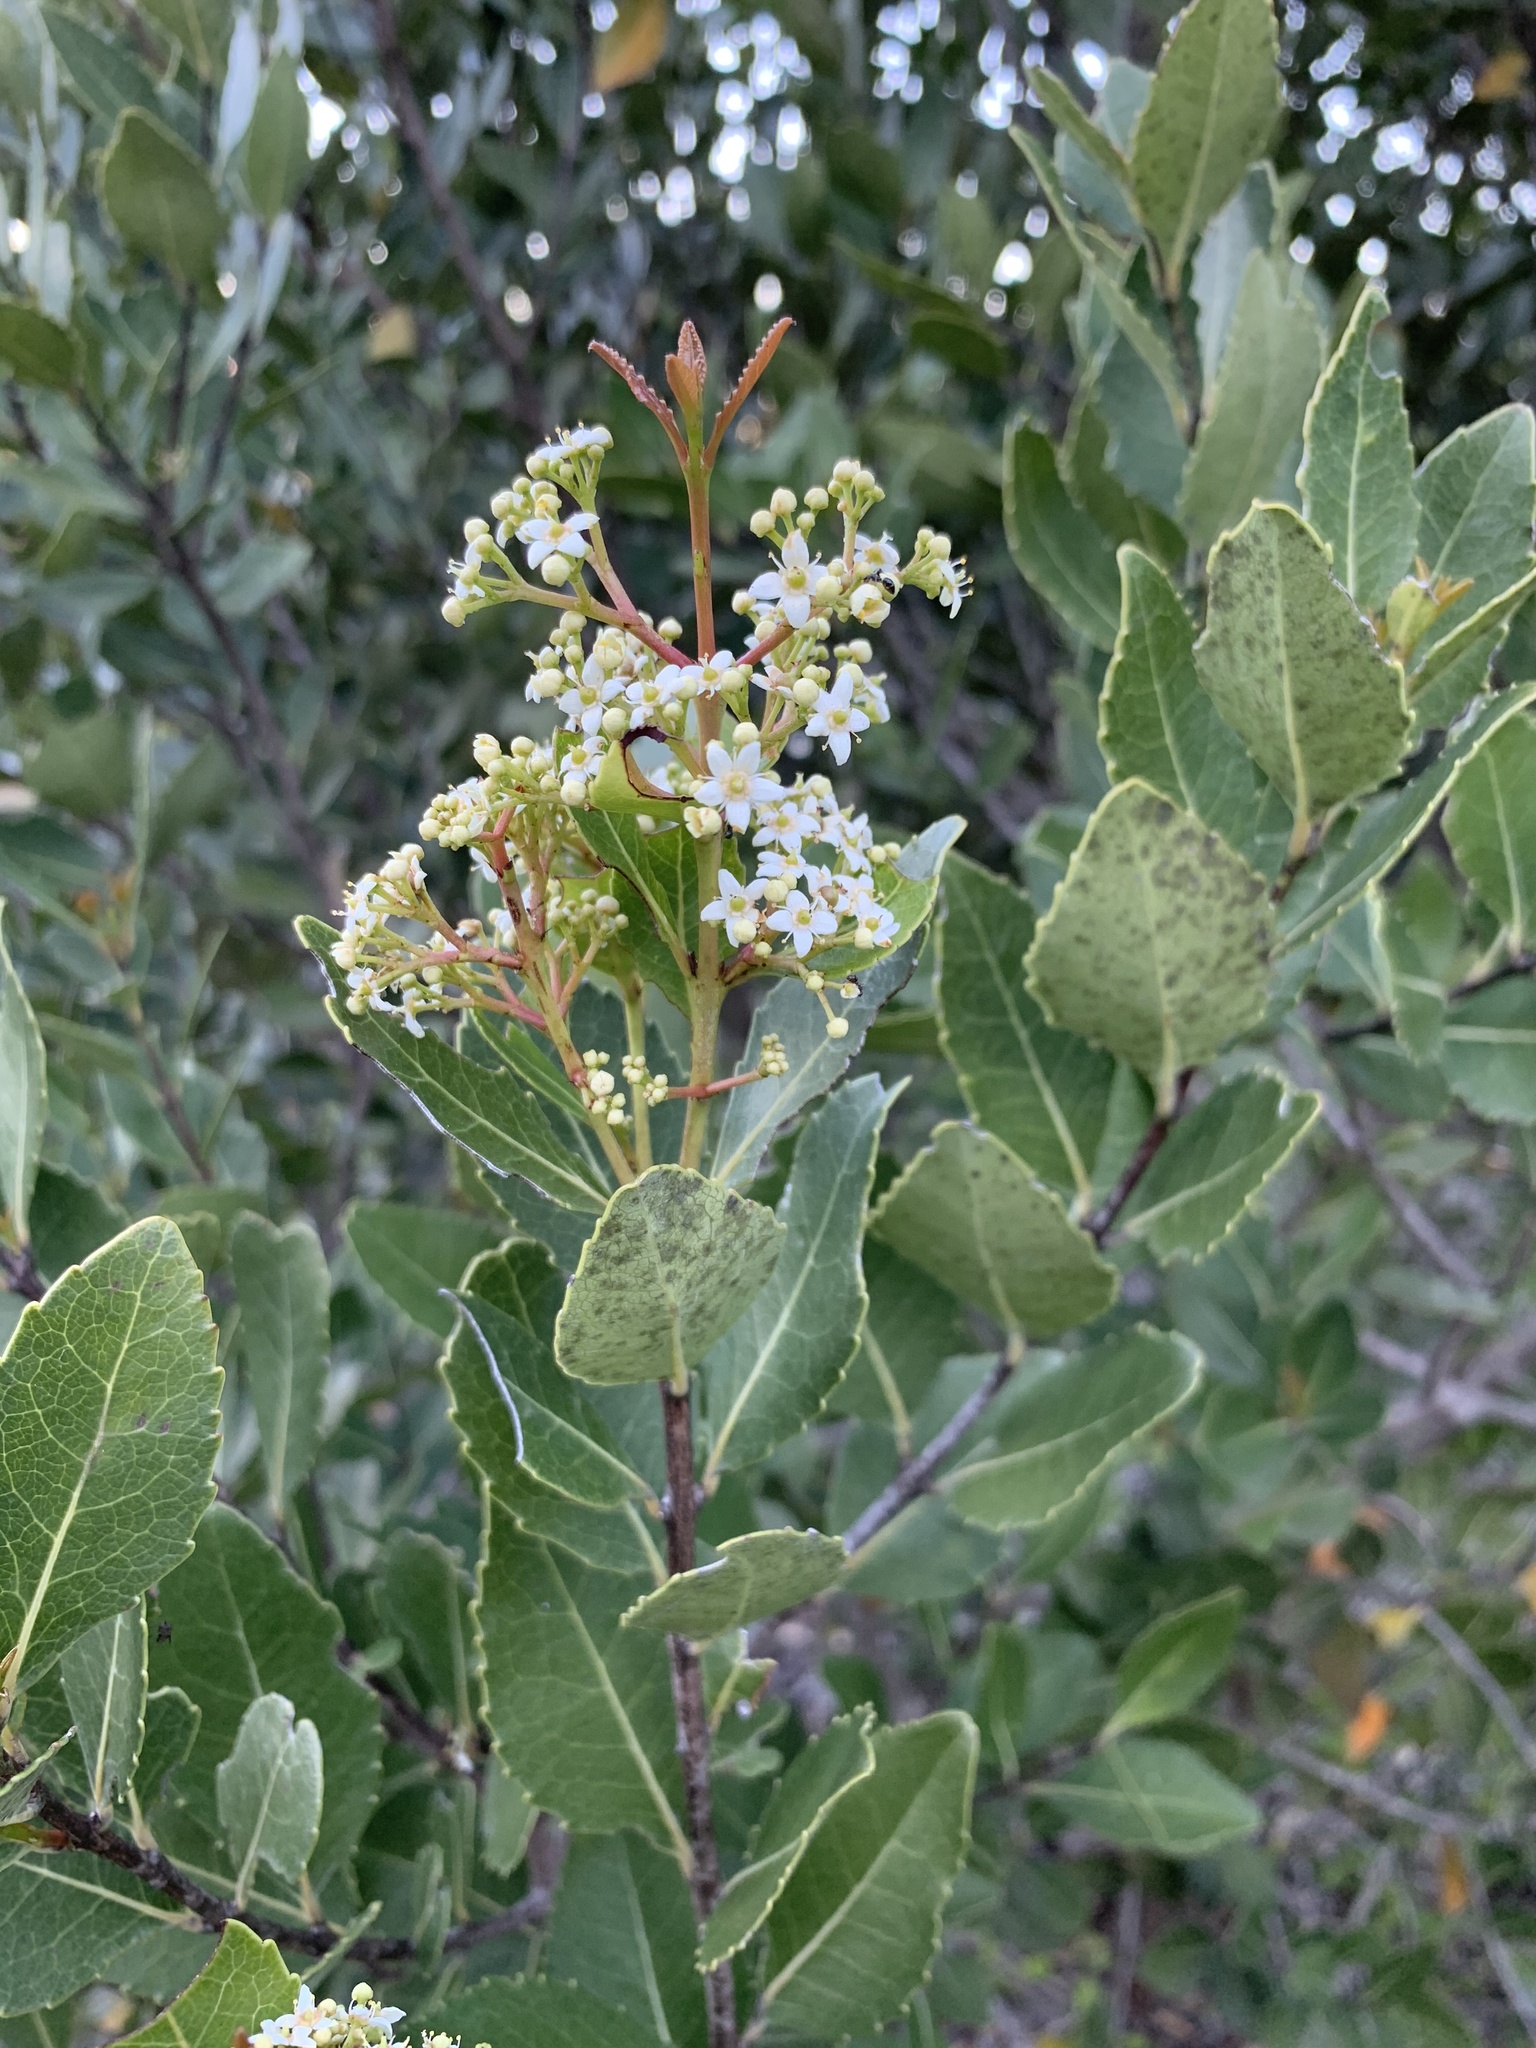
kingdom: Plantae
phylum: Tracheophyta
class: Magnoliopsida
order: Celastrales
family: Celastraceae
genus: Cassine
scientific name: Cassine peragua
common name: Cape saffron
